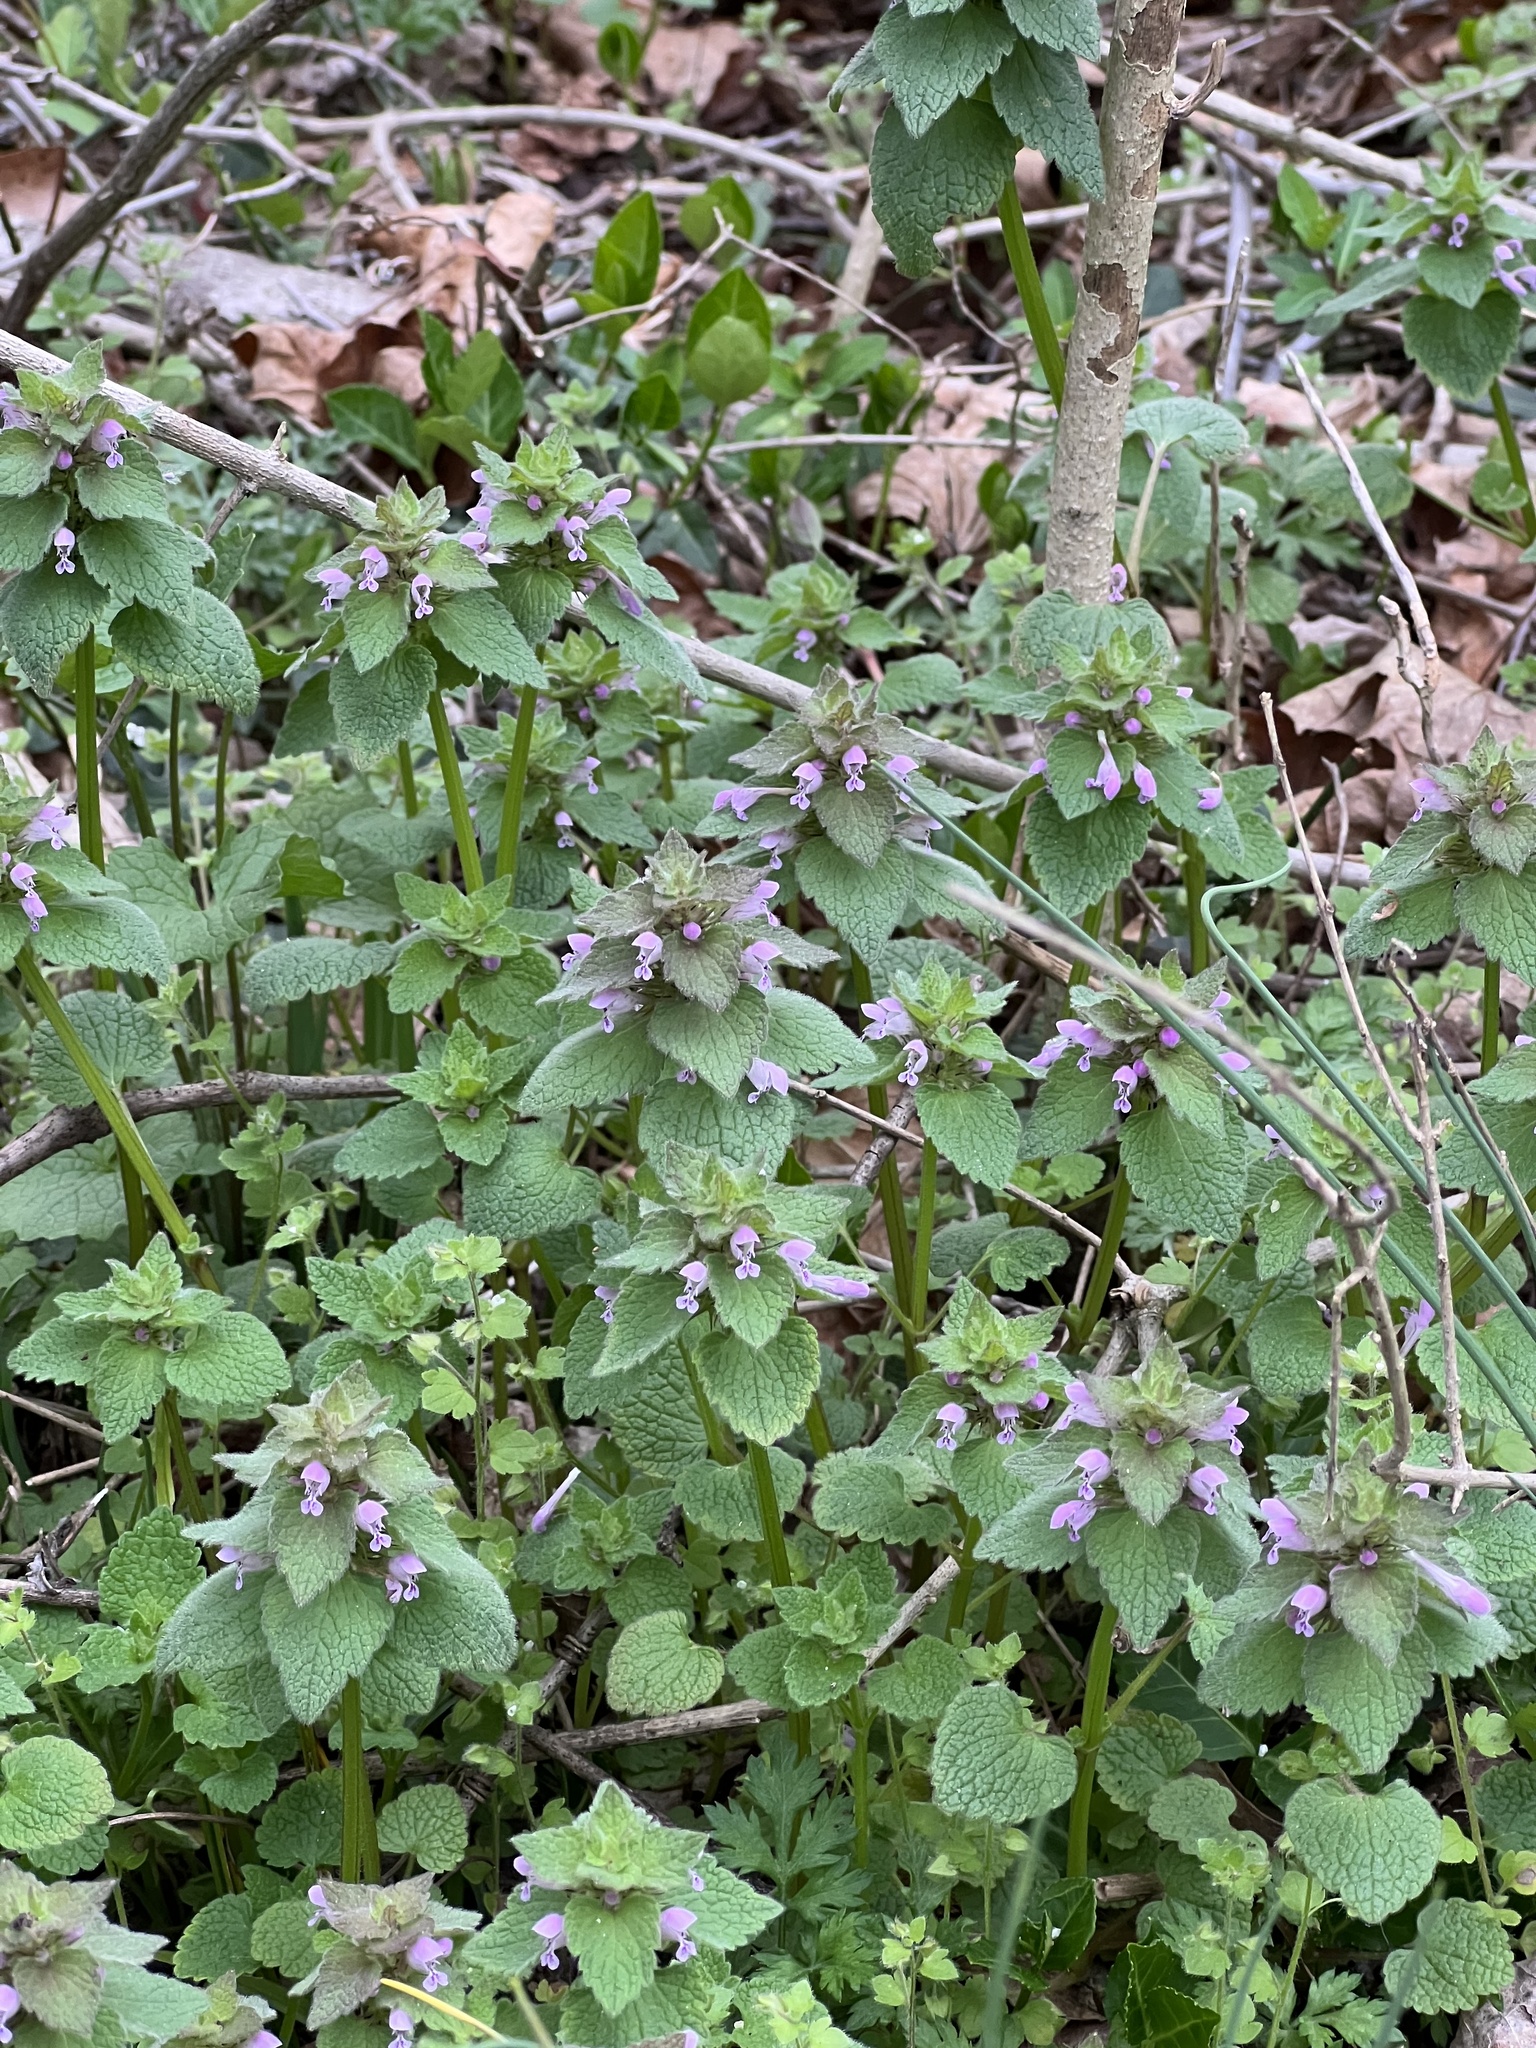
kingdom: Plantae
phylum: Tracheophyta
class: Magnoliopsida
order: Lamiales
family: Lamiaceae
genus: Lamium
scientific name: Lamium purpureum
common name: Red dead-nettle
